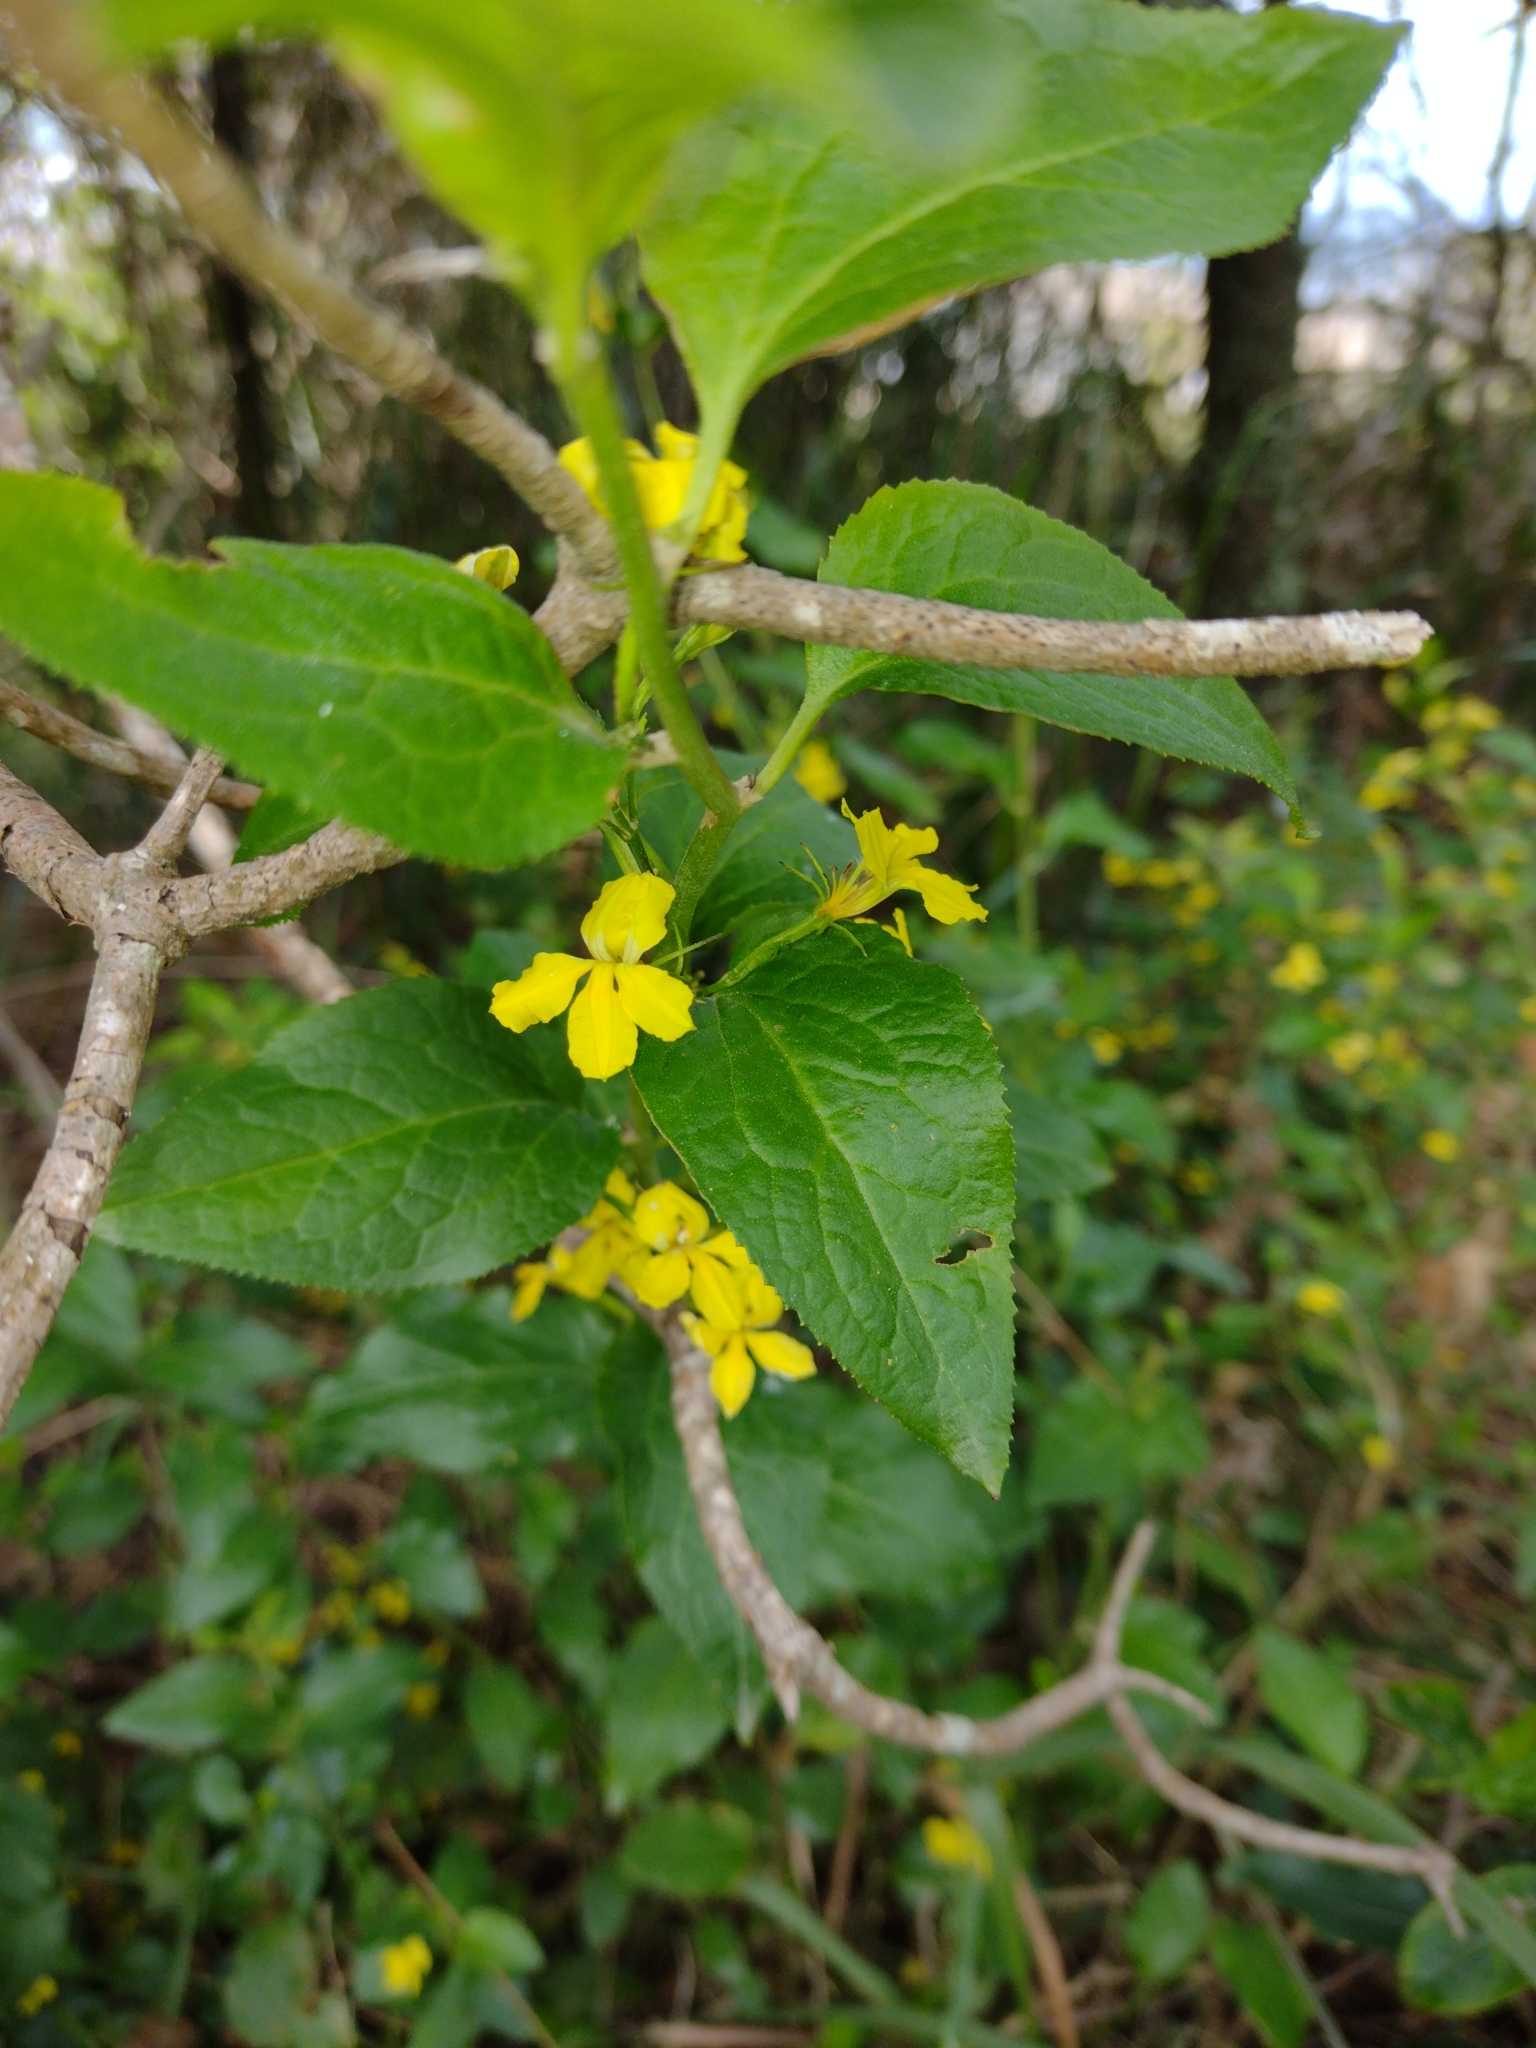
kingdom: Plantae
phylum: Tracheophyta
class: Magnoliopsida
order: Asterales
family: Goodeniaceae
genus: Goodenia
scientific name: Goodenia ovata
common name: Hop goodenia
